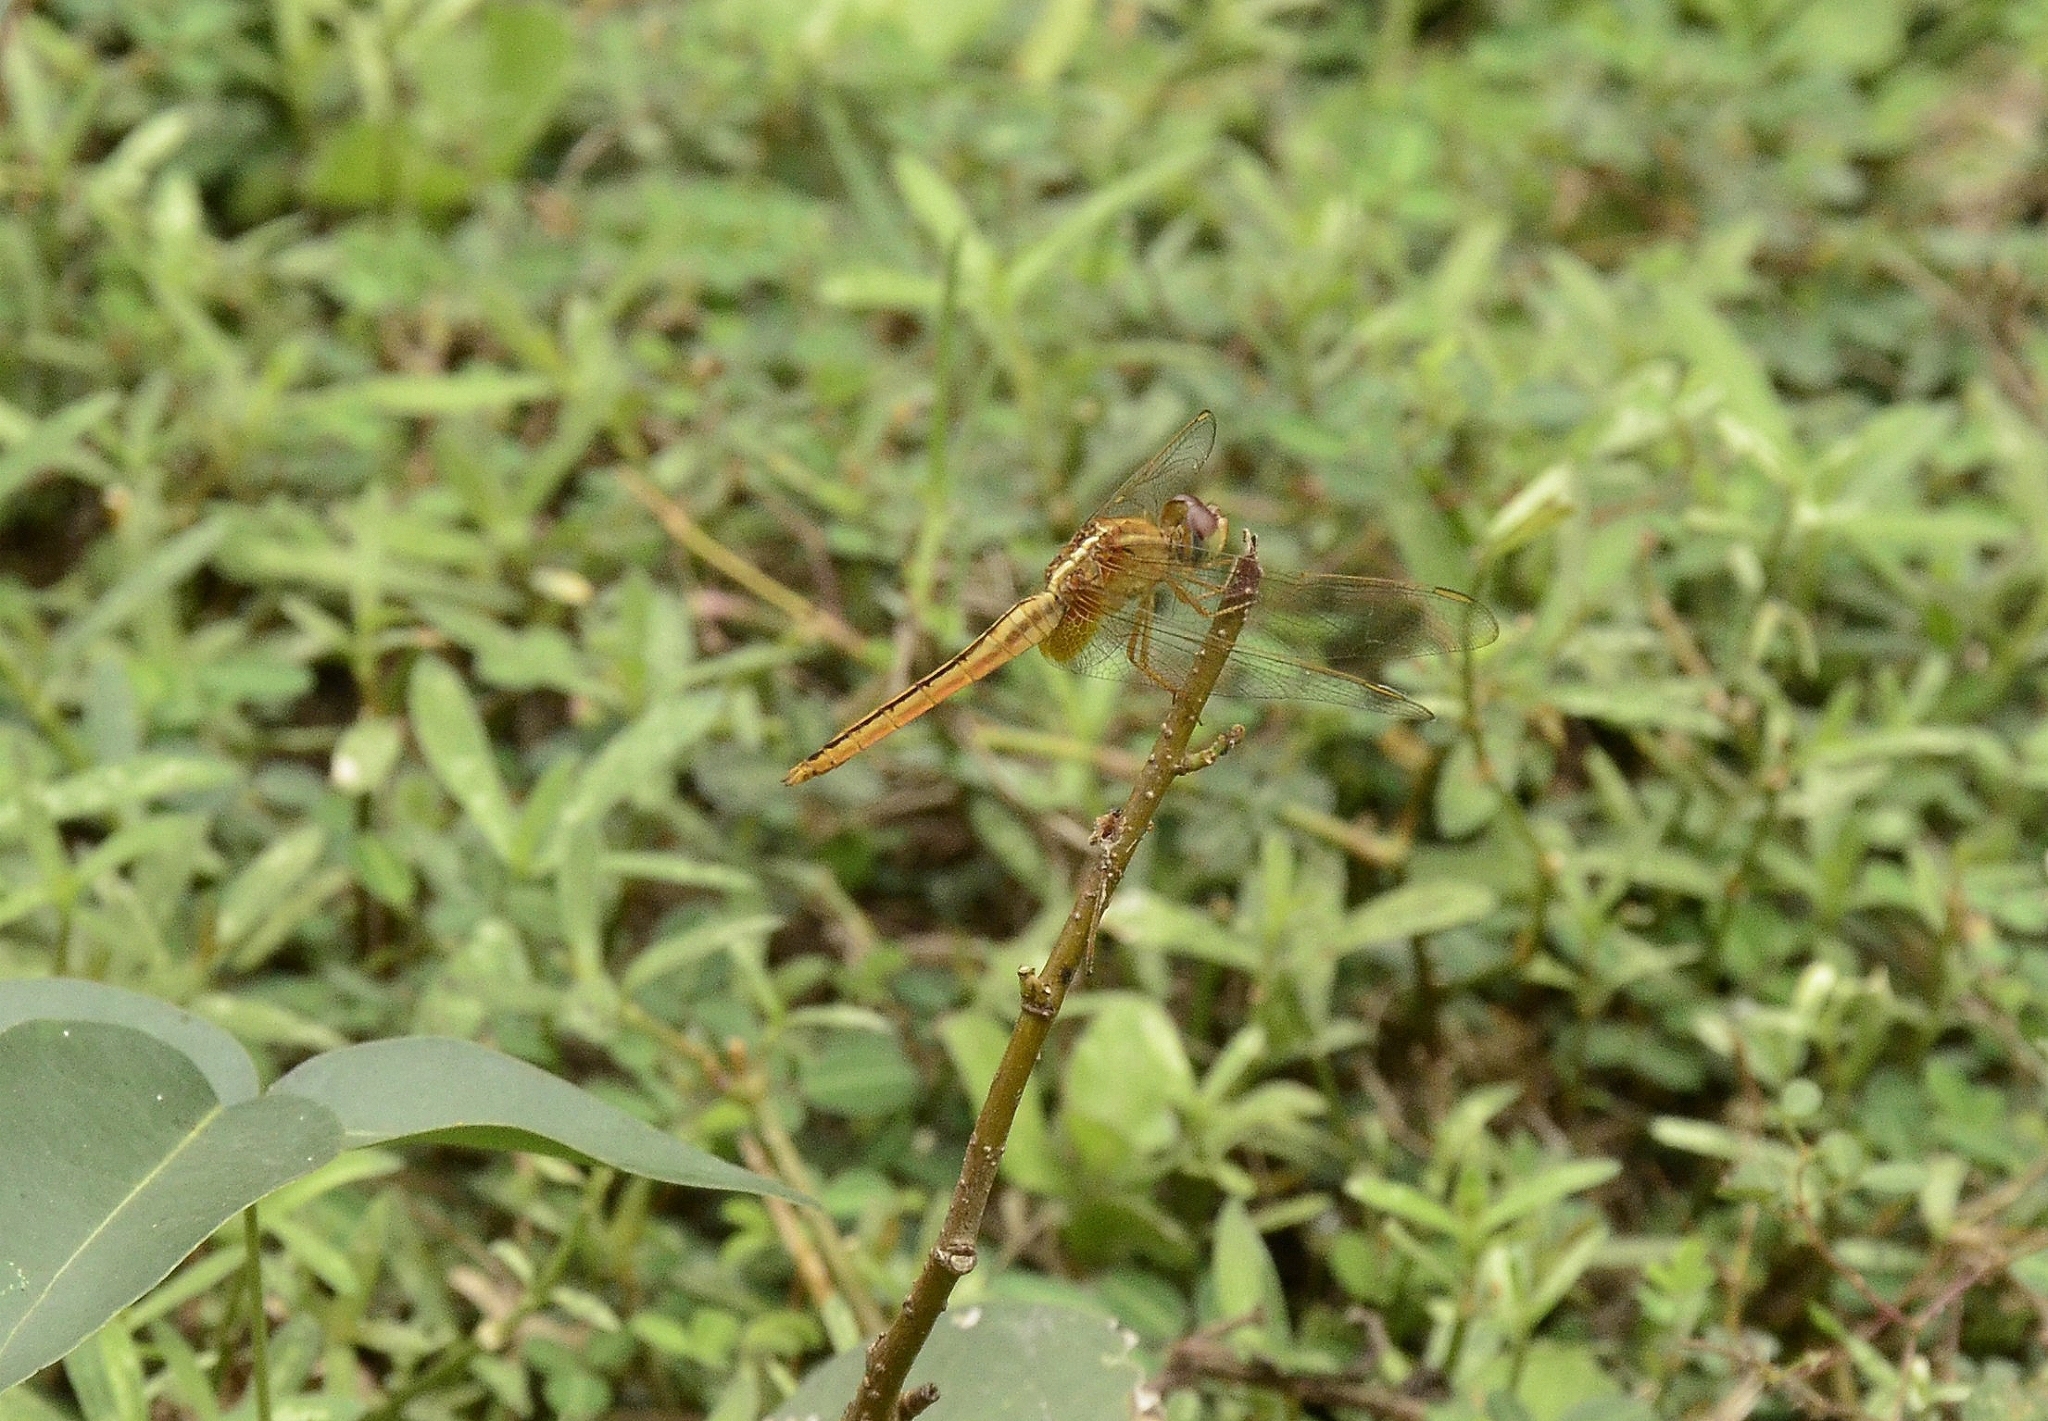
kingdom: Animalia
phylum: Arthropoda
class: Insecta
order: Odonata
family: Libellulidae
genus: Crocothemis
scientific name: Crocothemis servilia
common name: Scarlet skimmer
